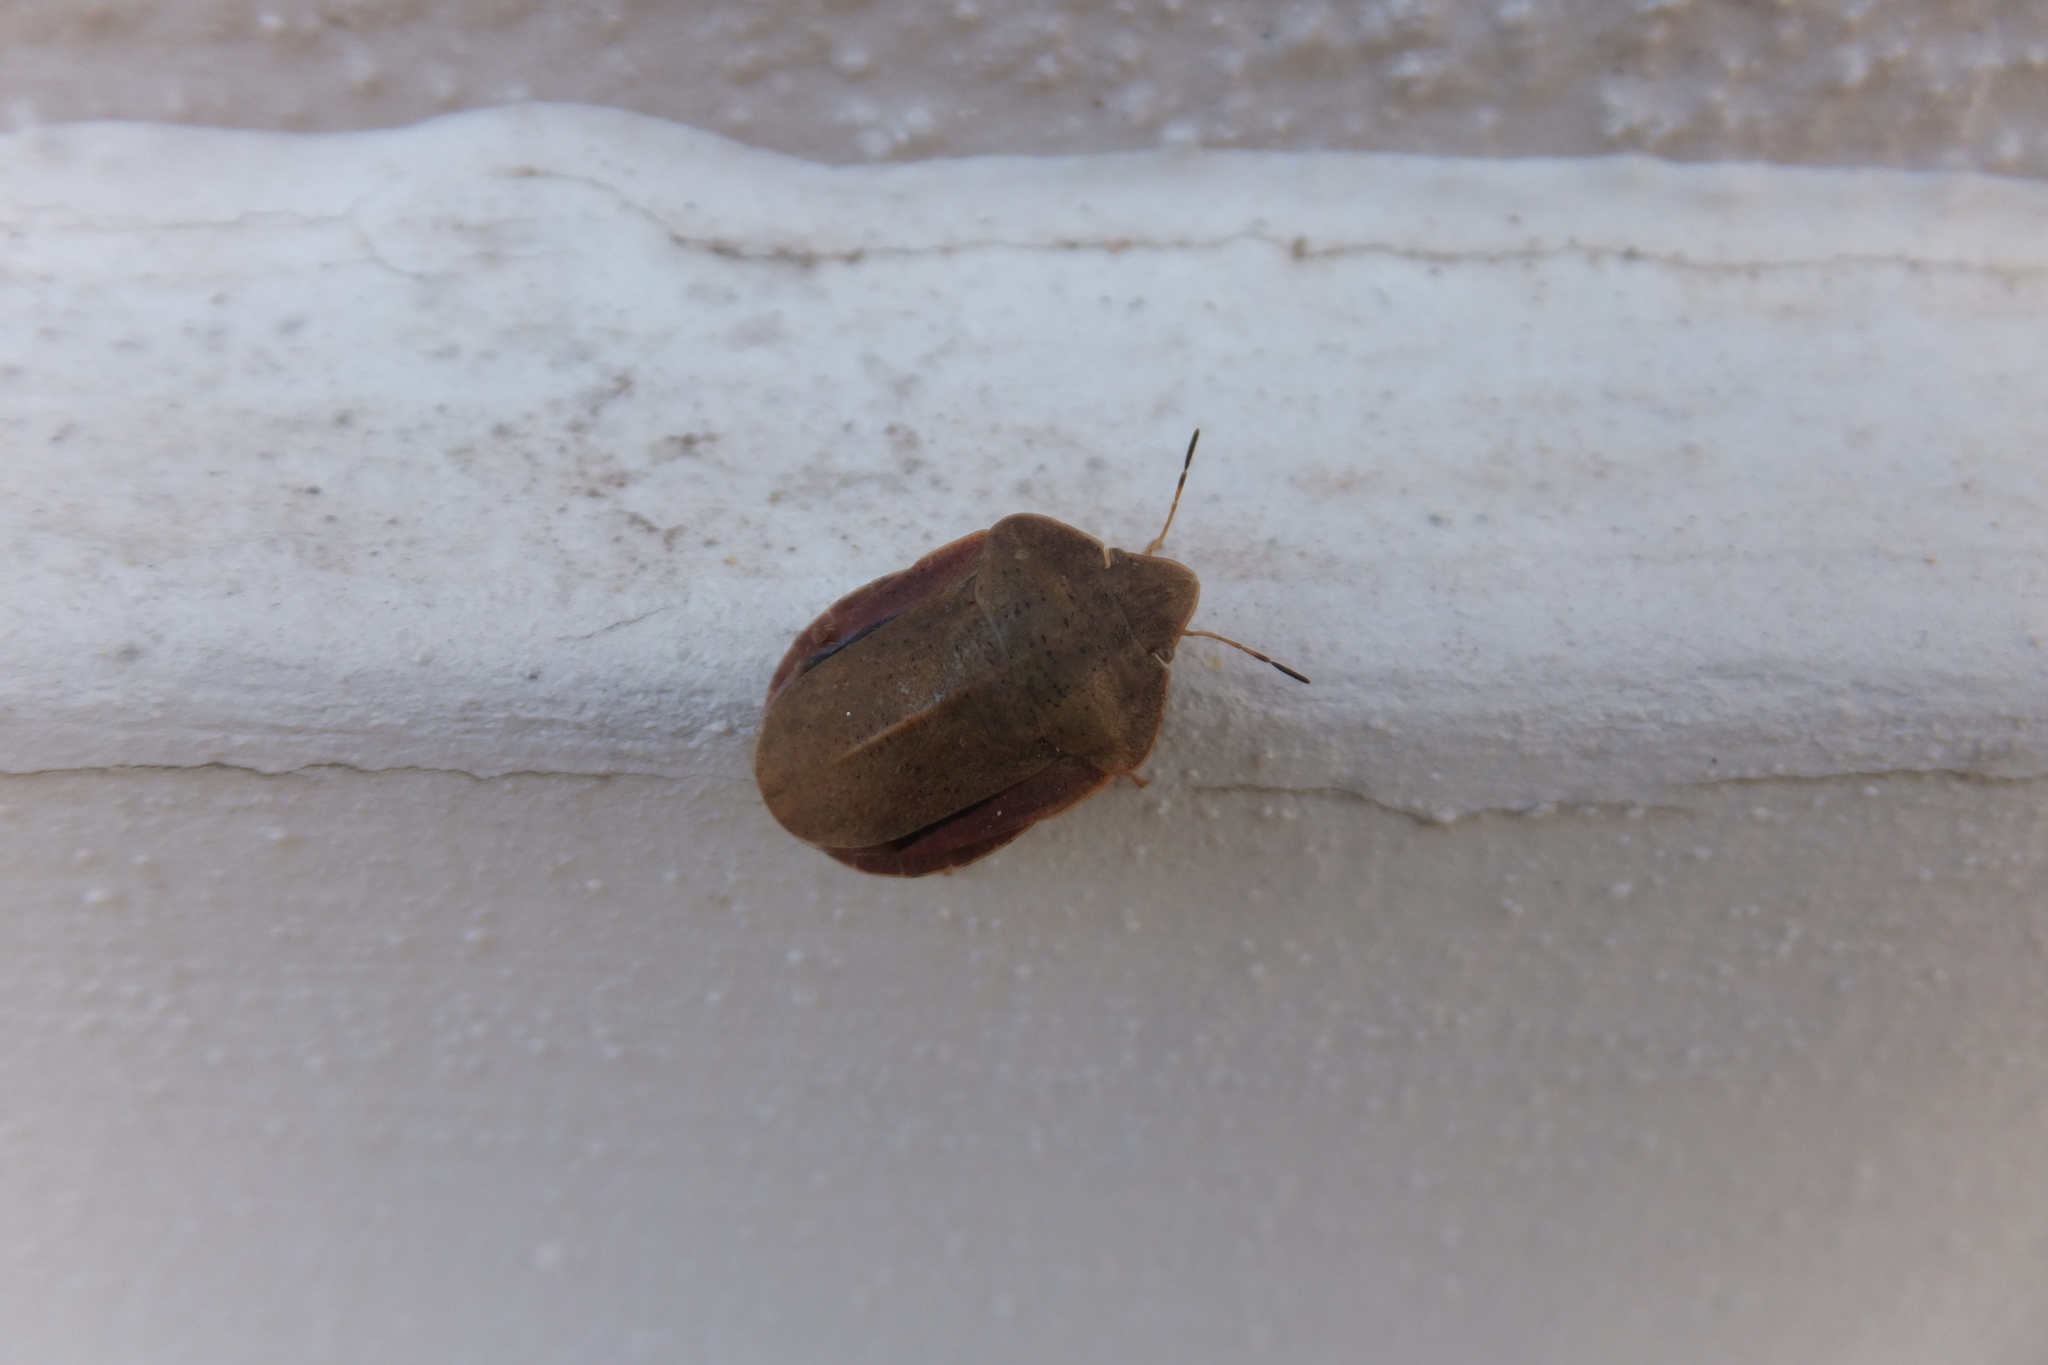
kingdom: Animalia
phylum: Arthropoda
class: Insecta
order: Hemiptera
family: Scutelleridae
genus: Eurygaster
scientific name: Eurygaster austriaca
